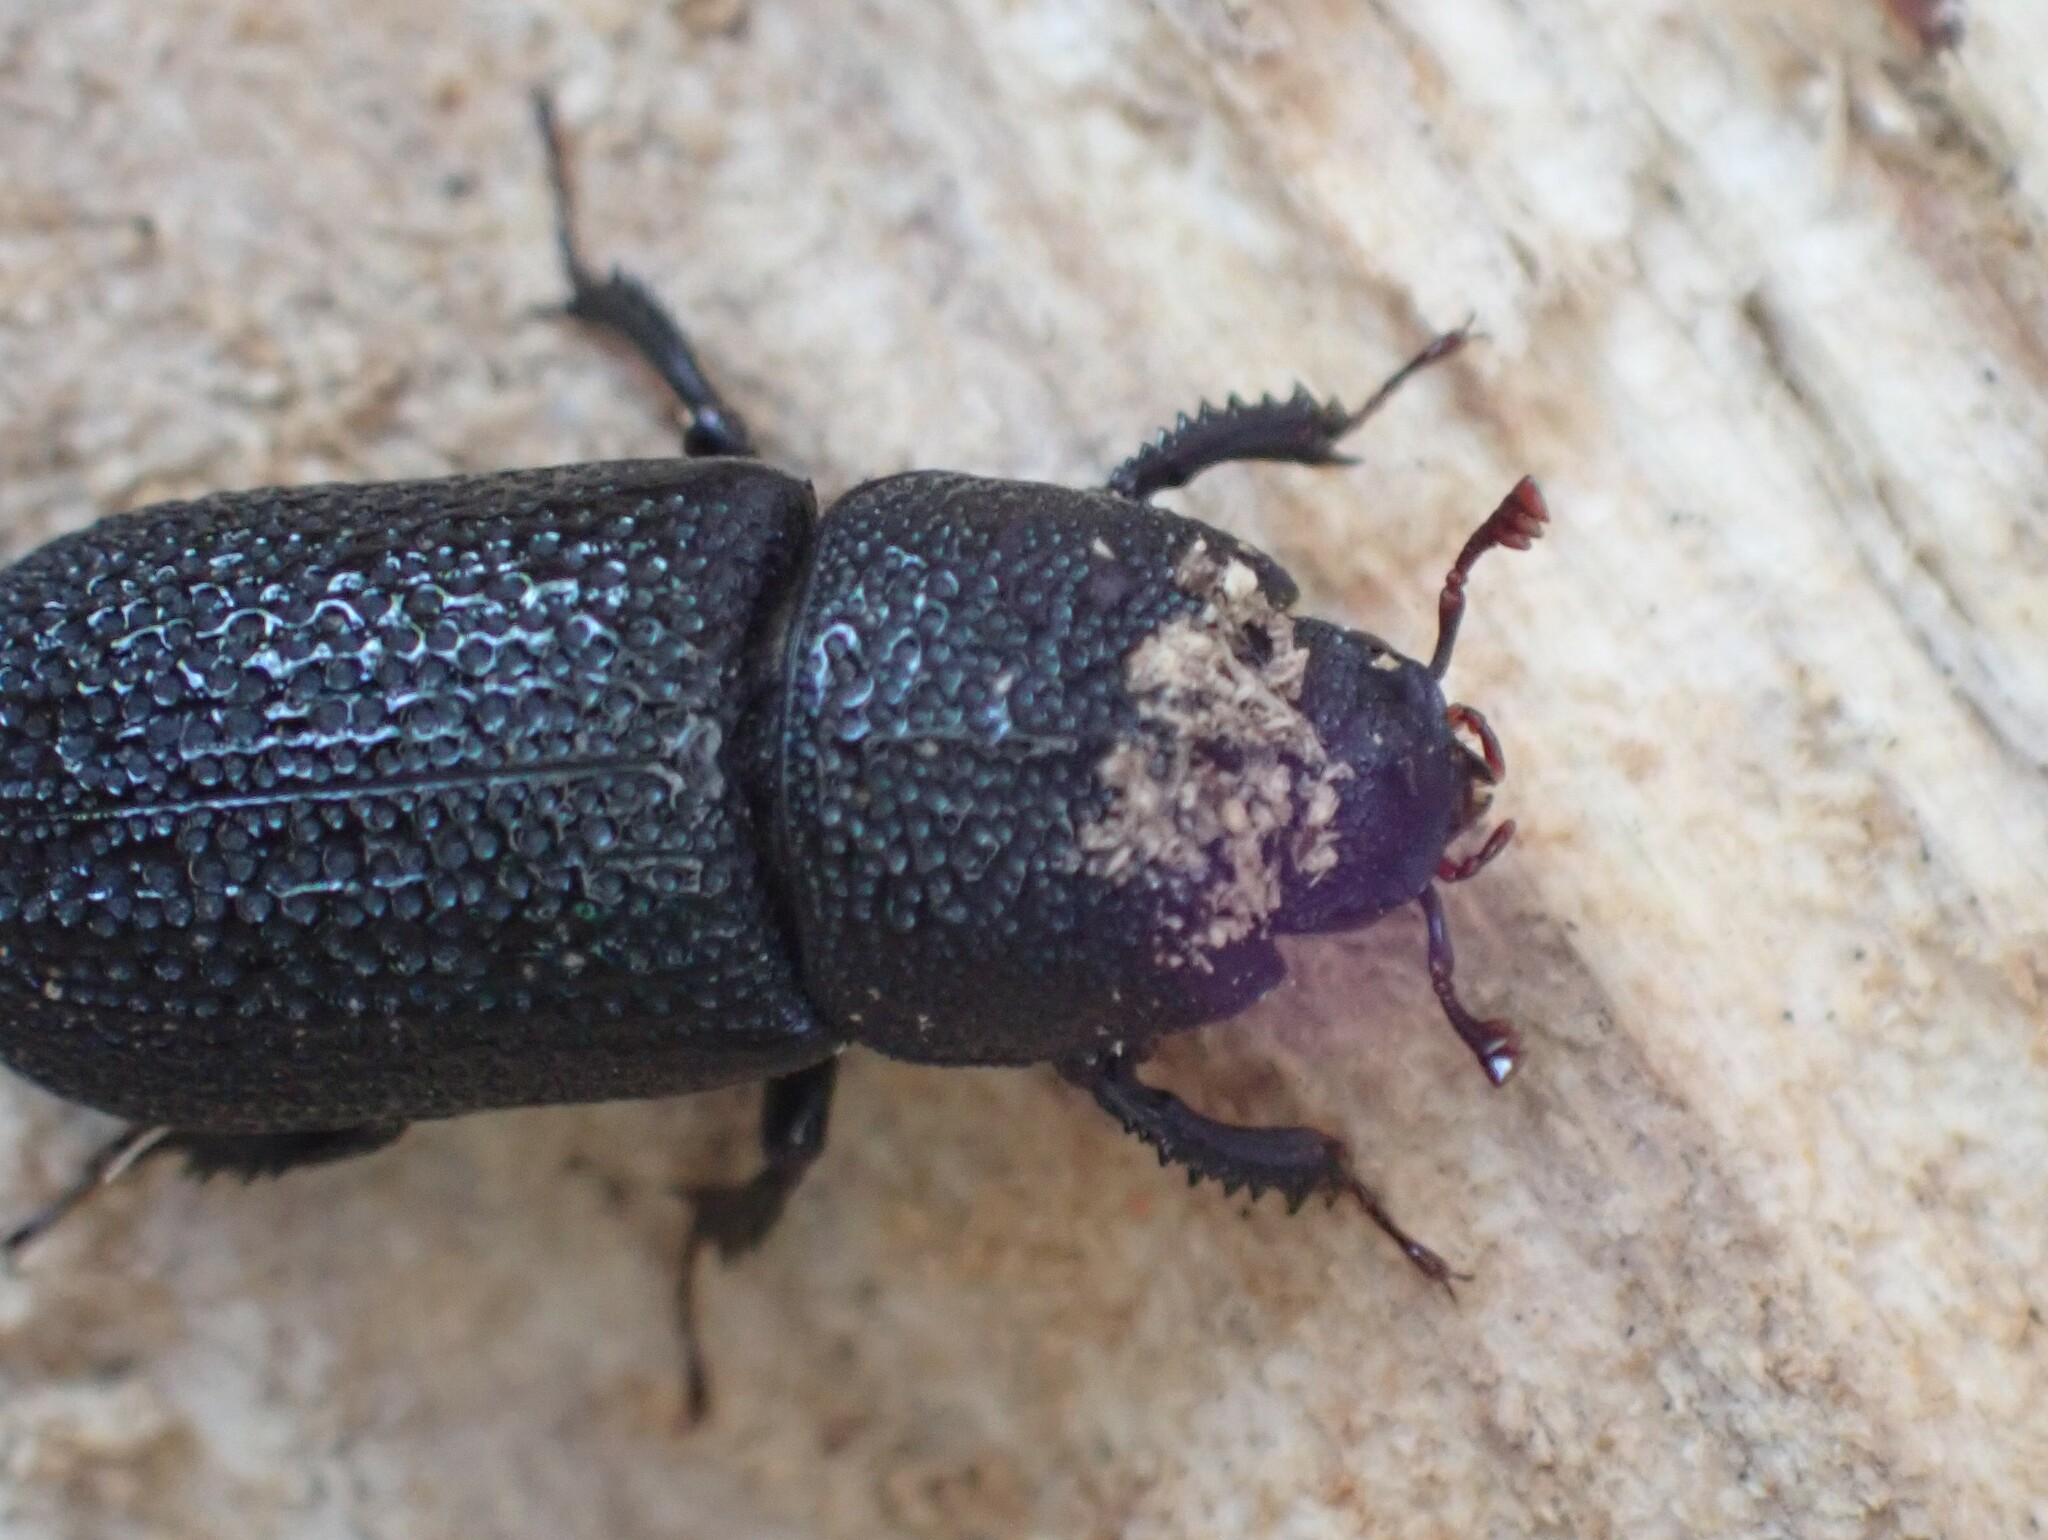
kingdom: Animalia
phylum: Arthropoda
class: Insecta
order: Coleoptera
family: Lucanidae
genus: Sinodendron
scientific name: Sinodendron rugosum
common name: Rugose stag beelte
